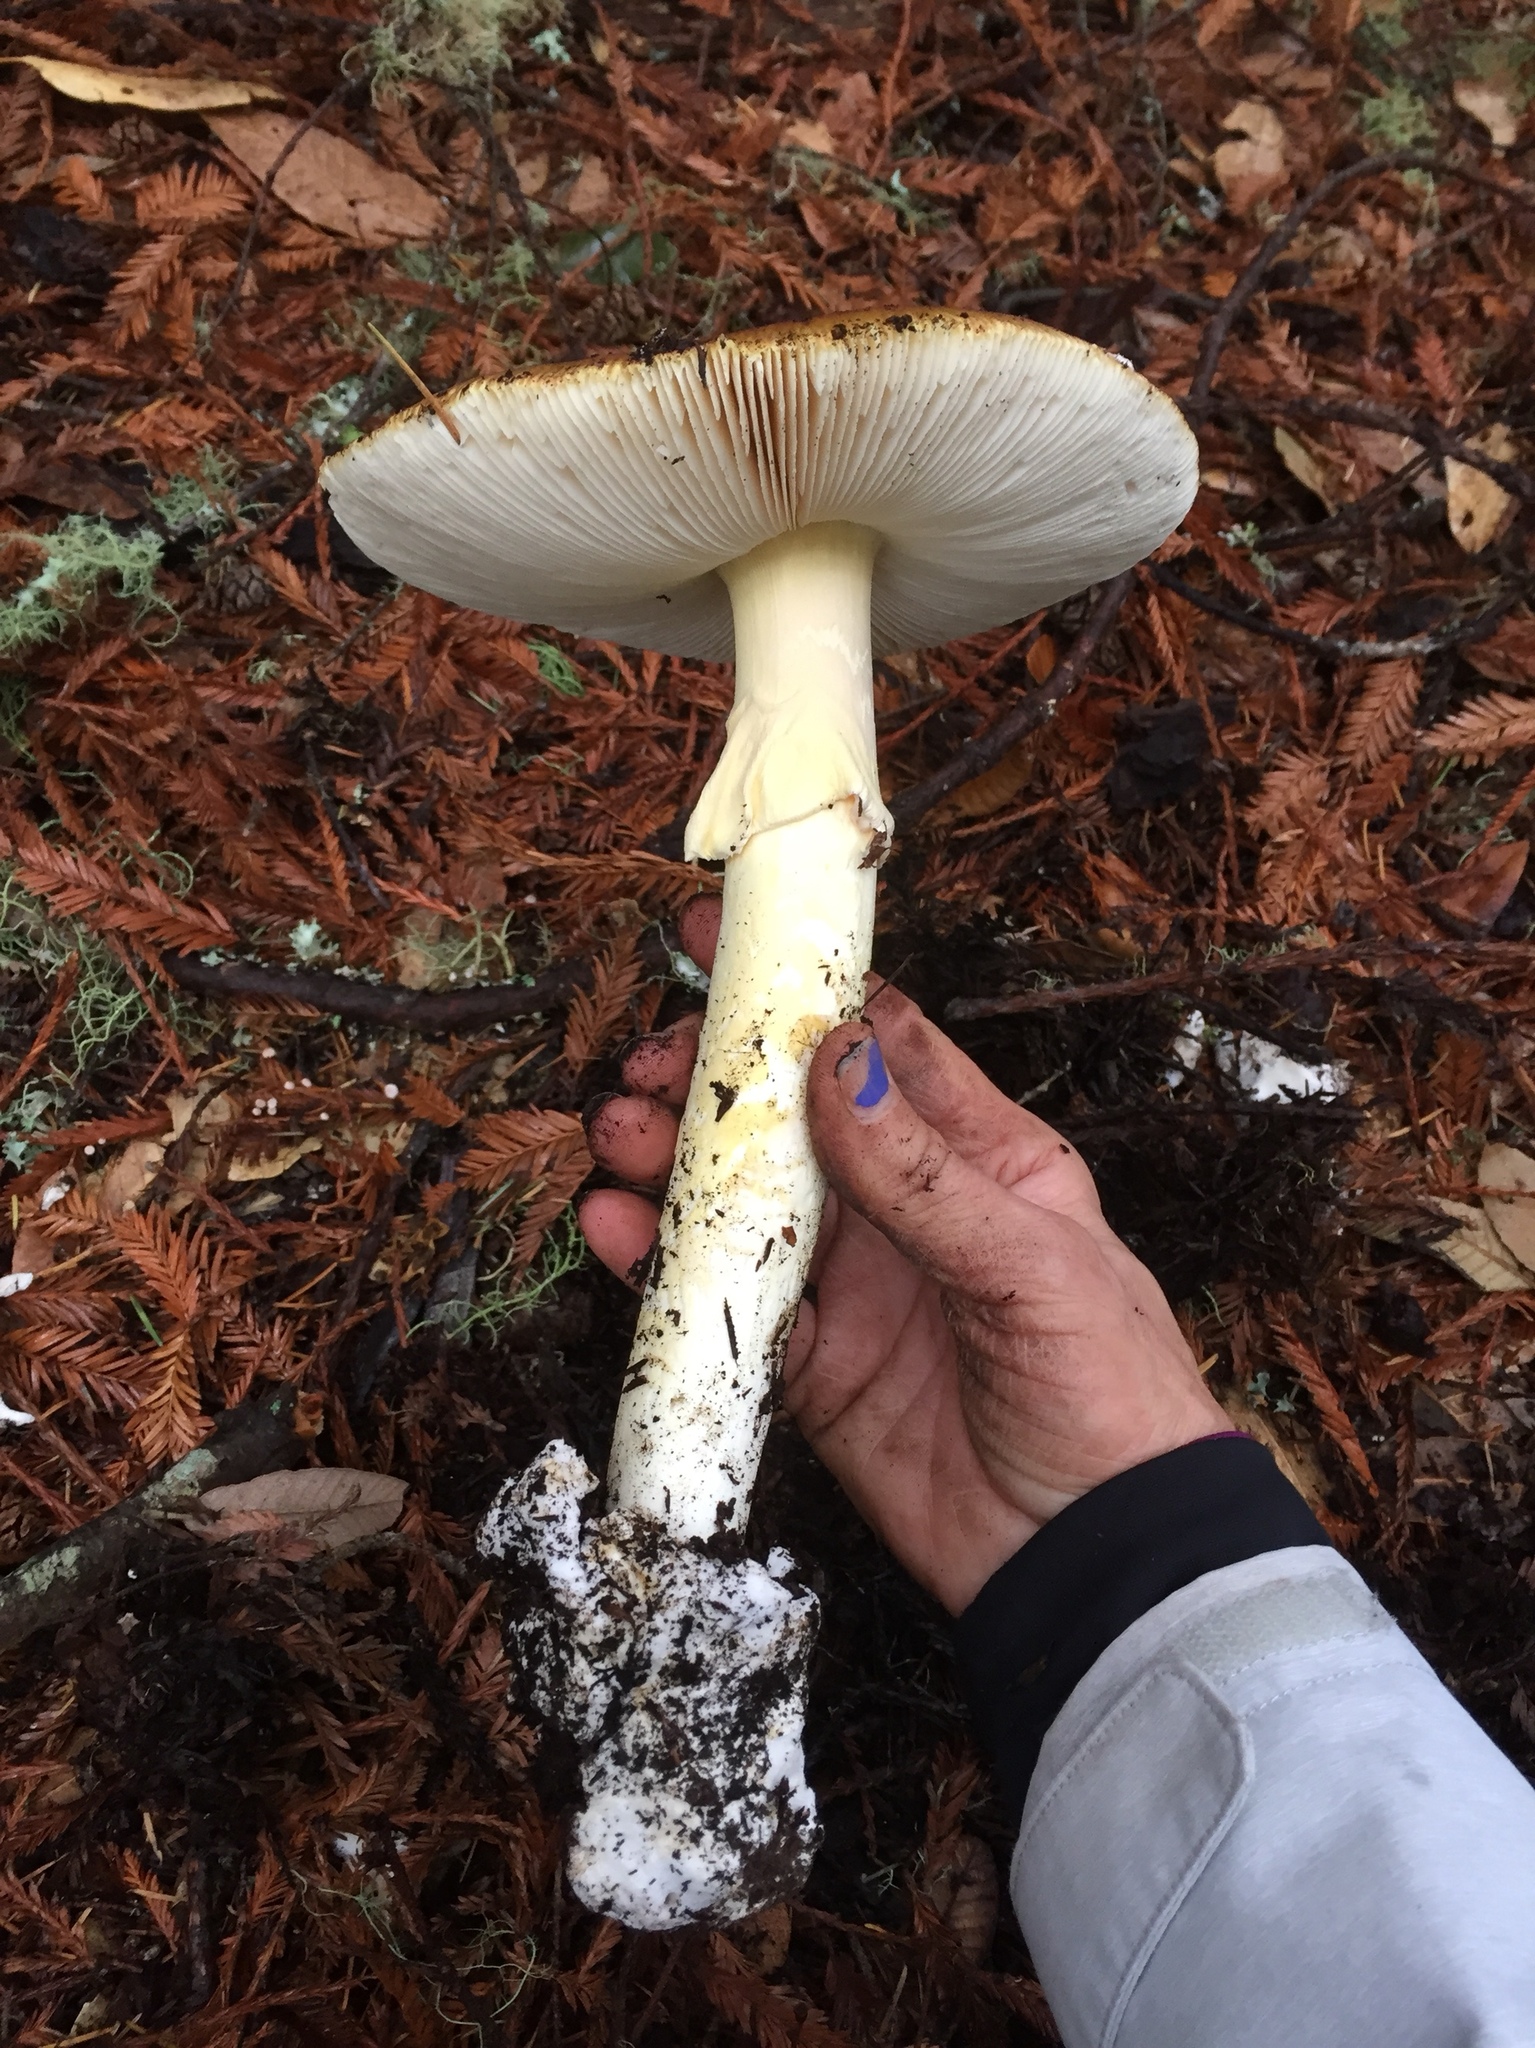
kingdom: Fungi
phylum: Basidiomycota
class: Agaricomycetes
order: Agaricales
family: Amanitaceae
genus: Amanita
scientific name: Amanita calyptroderma
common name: Coccora
